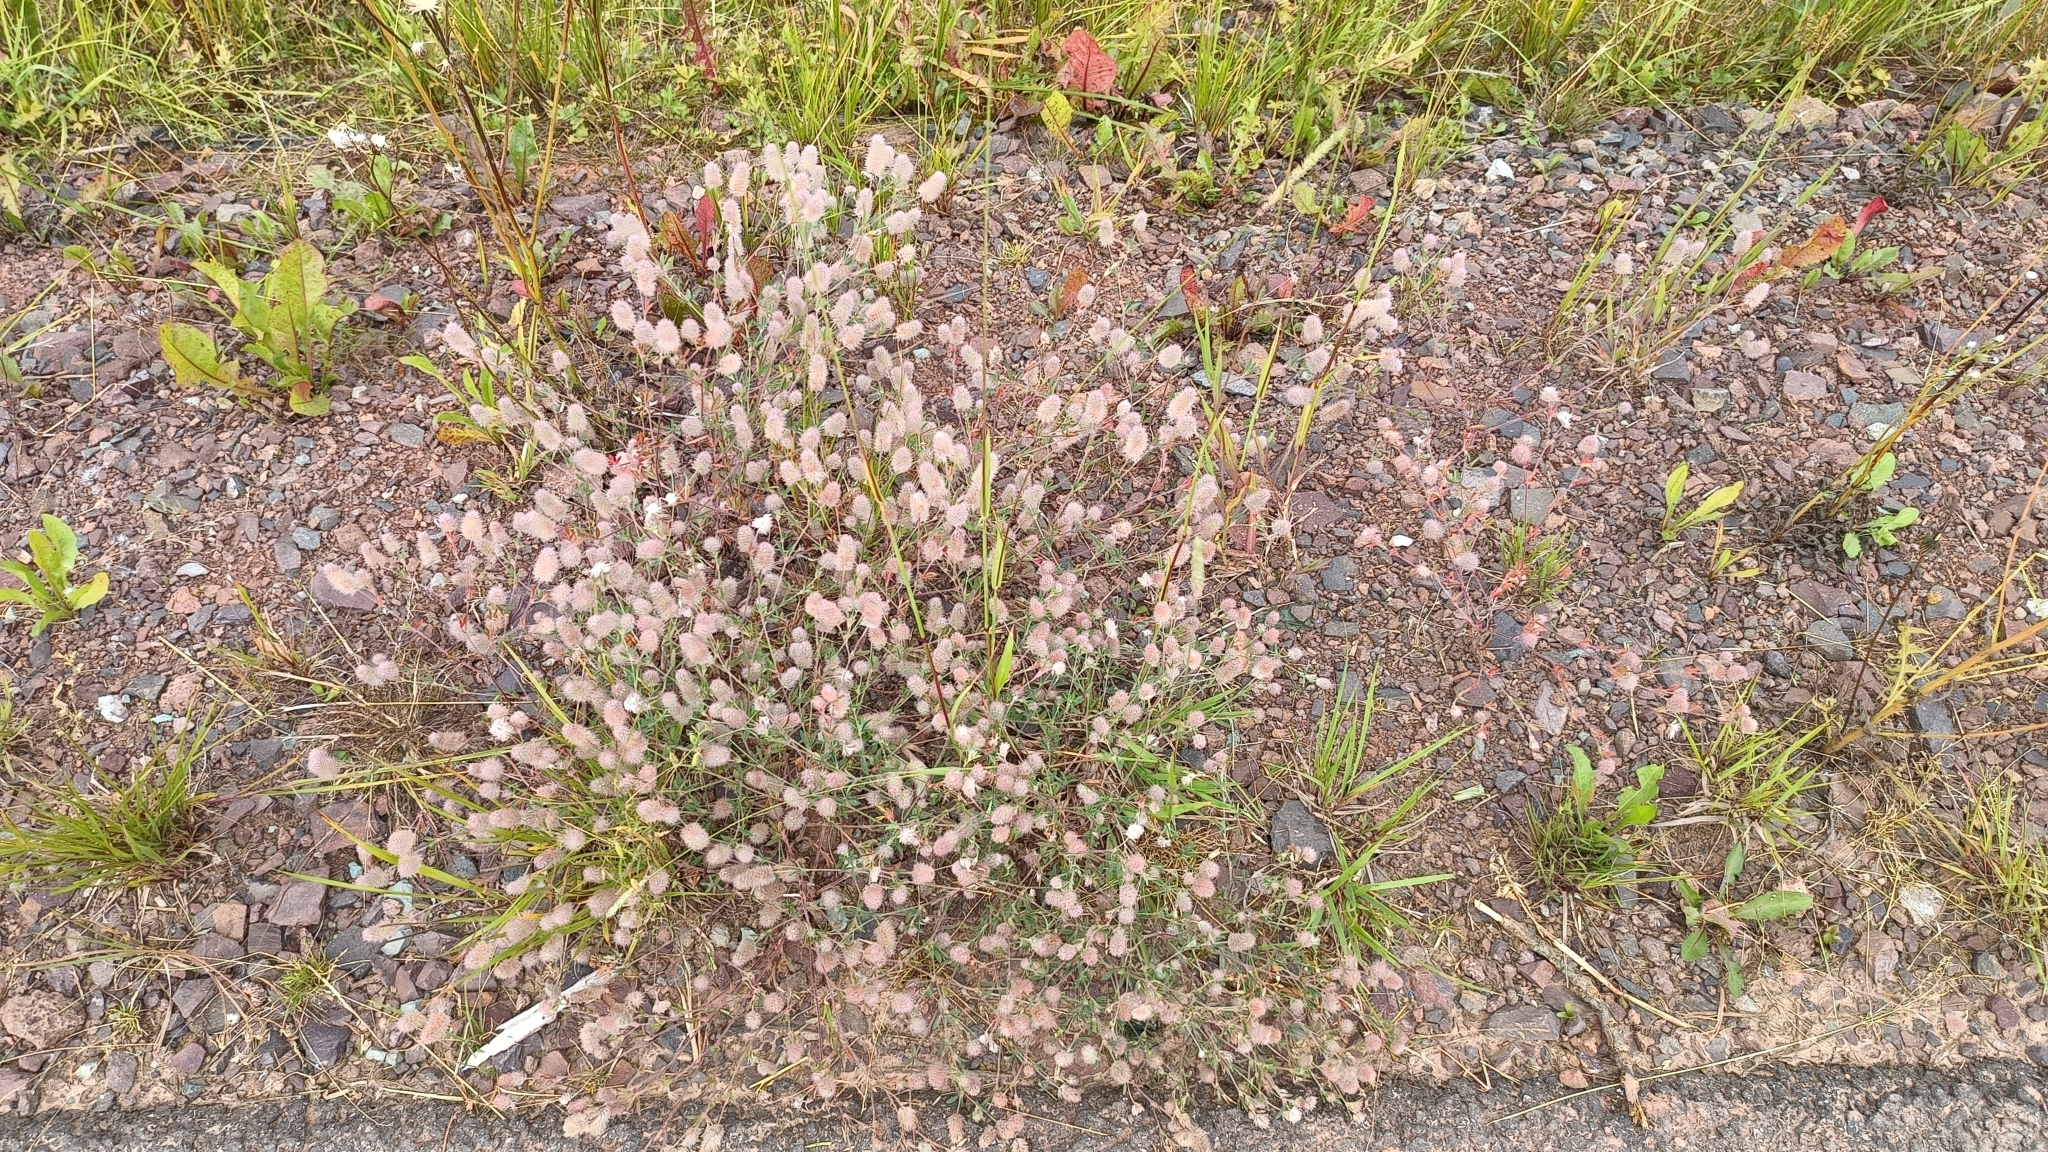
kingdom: Plantae
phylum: Tracheophyta
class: Magnoliopsida
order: Fabales
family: Fabaceae
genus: Trifolium
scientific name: Trifolium arvense
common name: Hare's-foot clover
